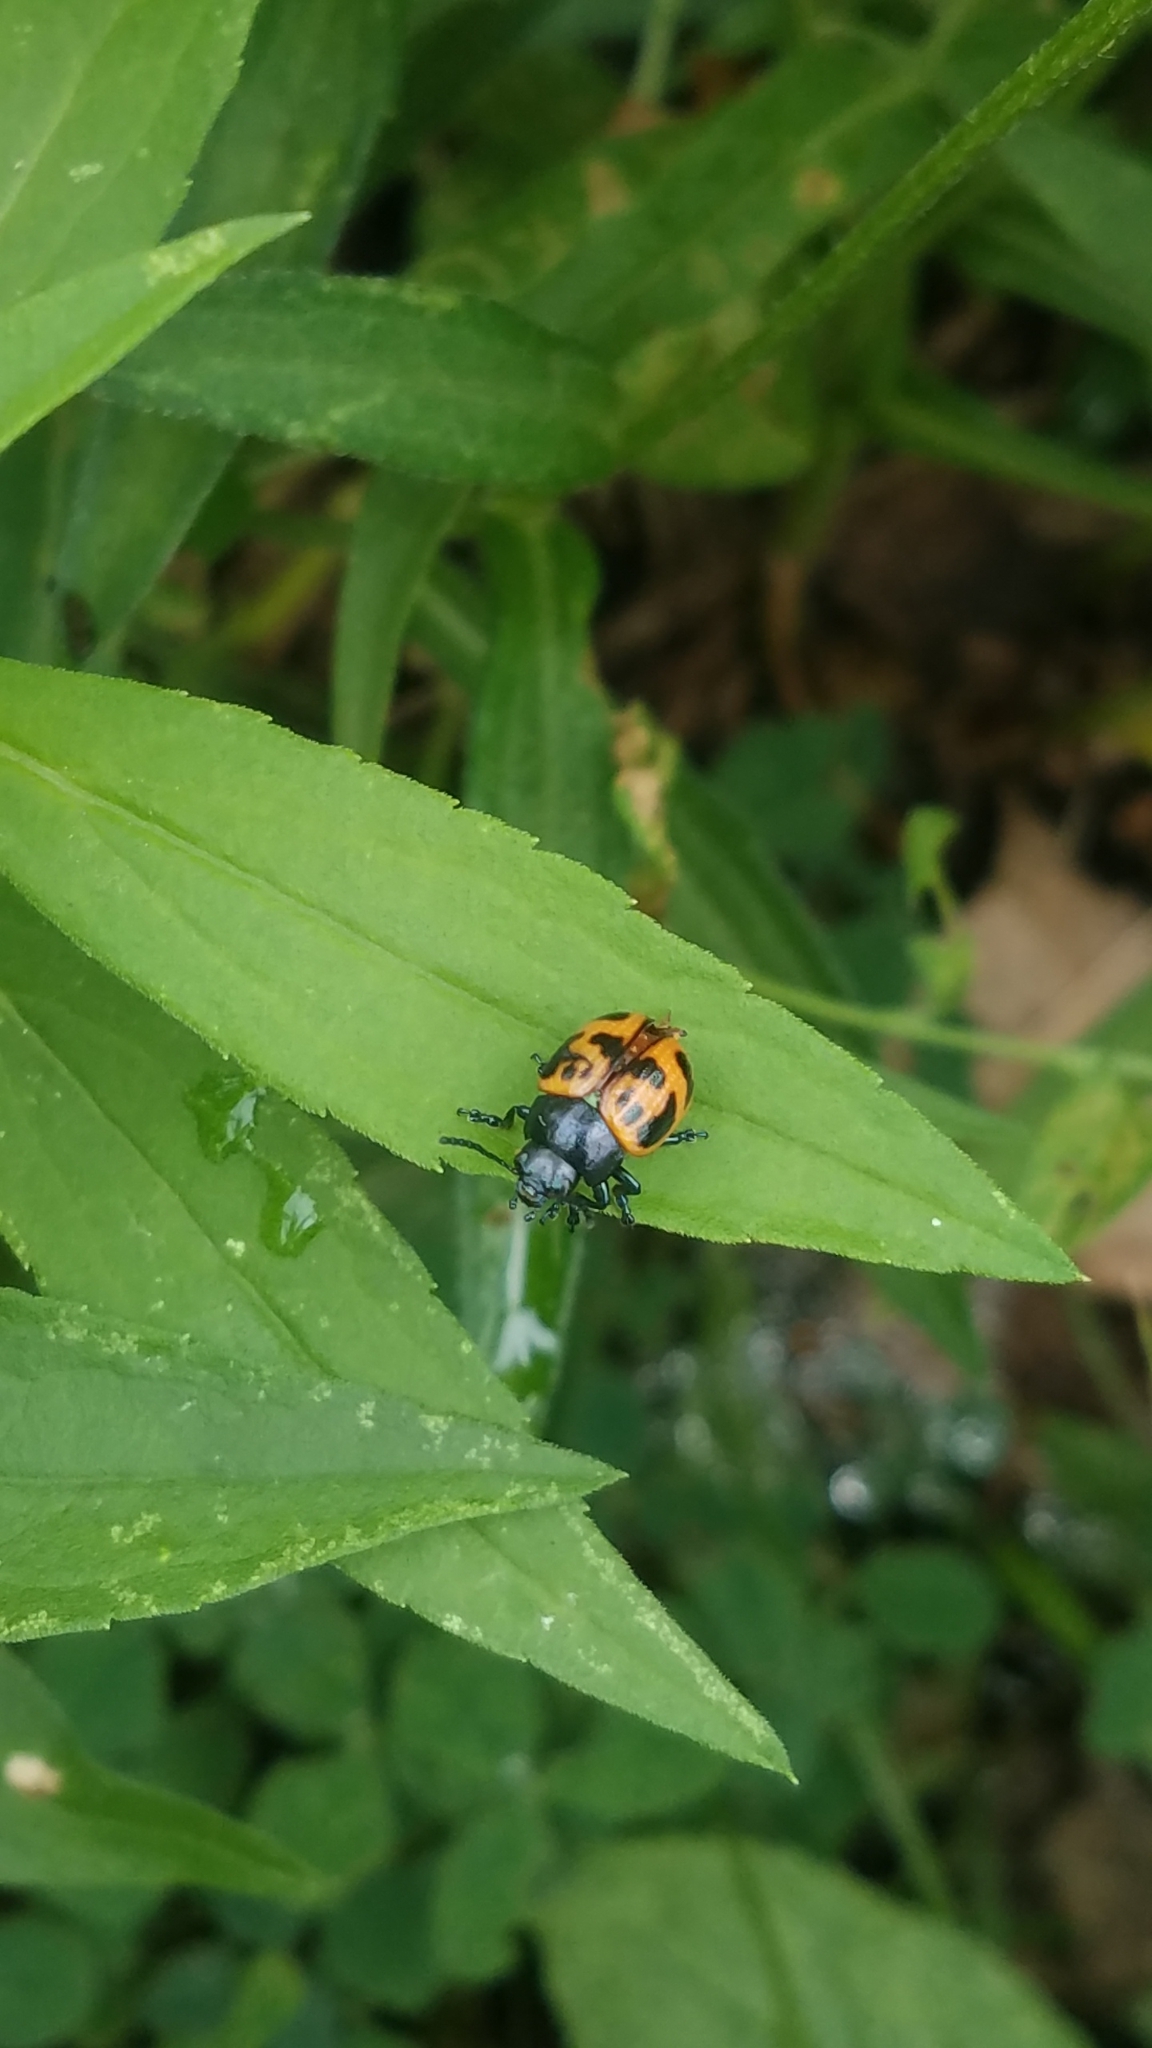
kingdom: Animalia
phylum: Arthropoda
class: Insecta
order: Coleoptera
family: Chrysomelidae
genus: Labidomera
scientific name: Labidomera clivicollis
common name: Swamp milkweed leaf beetle
